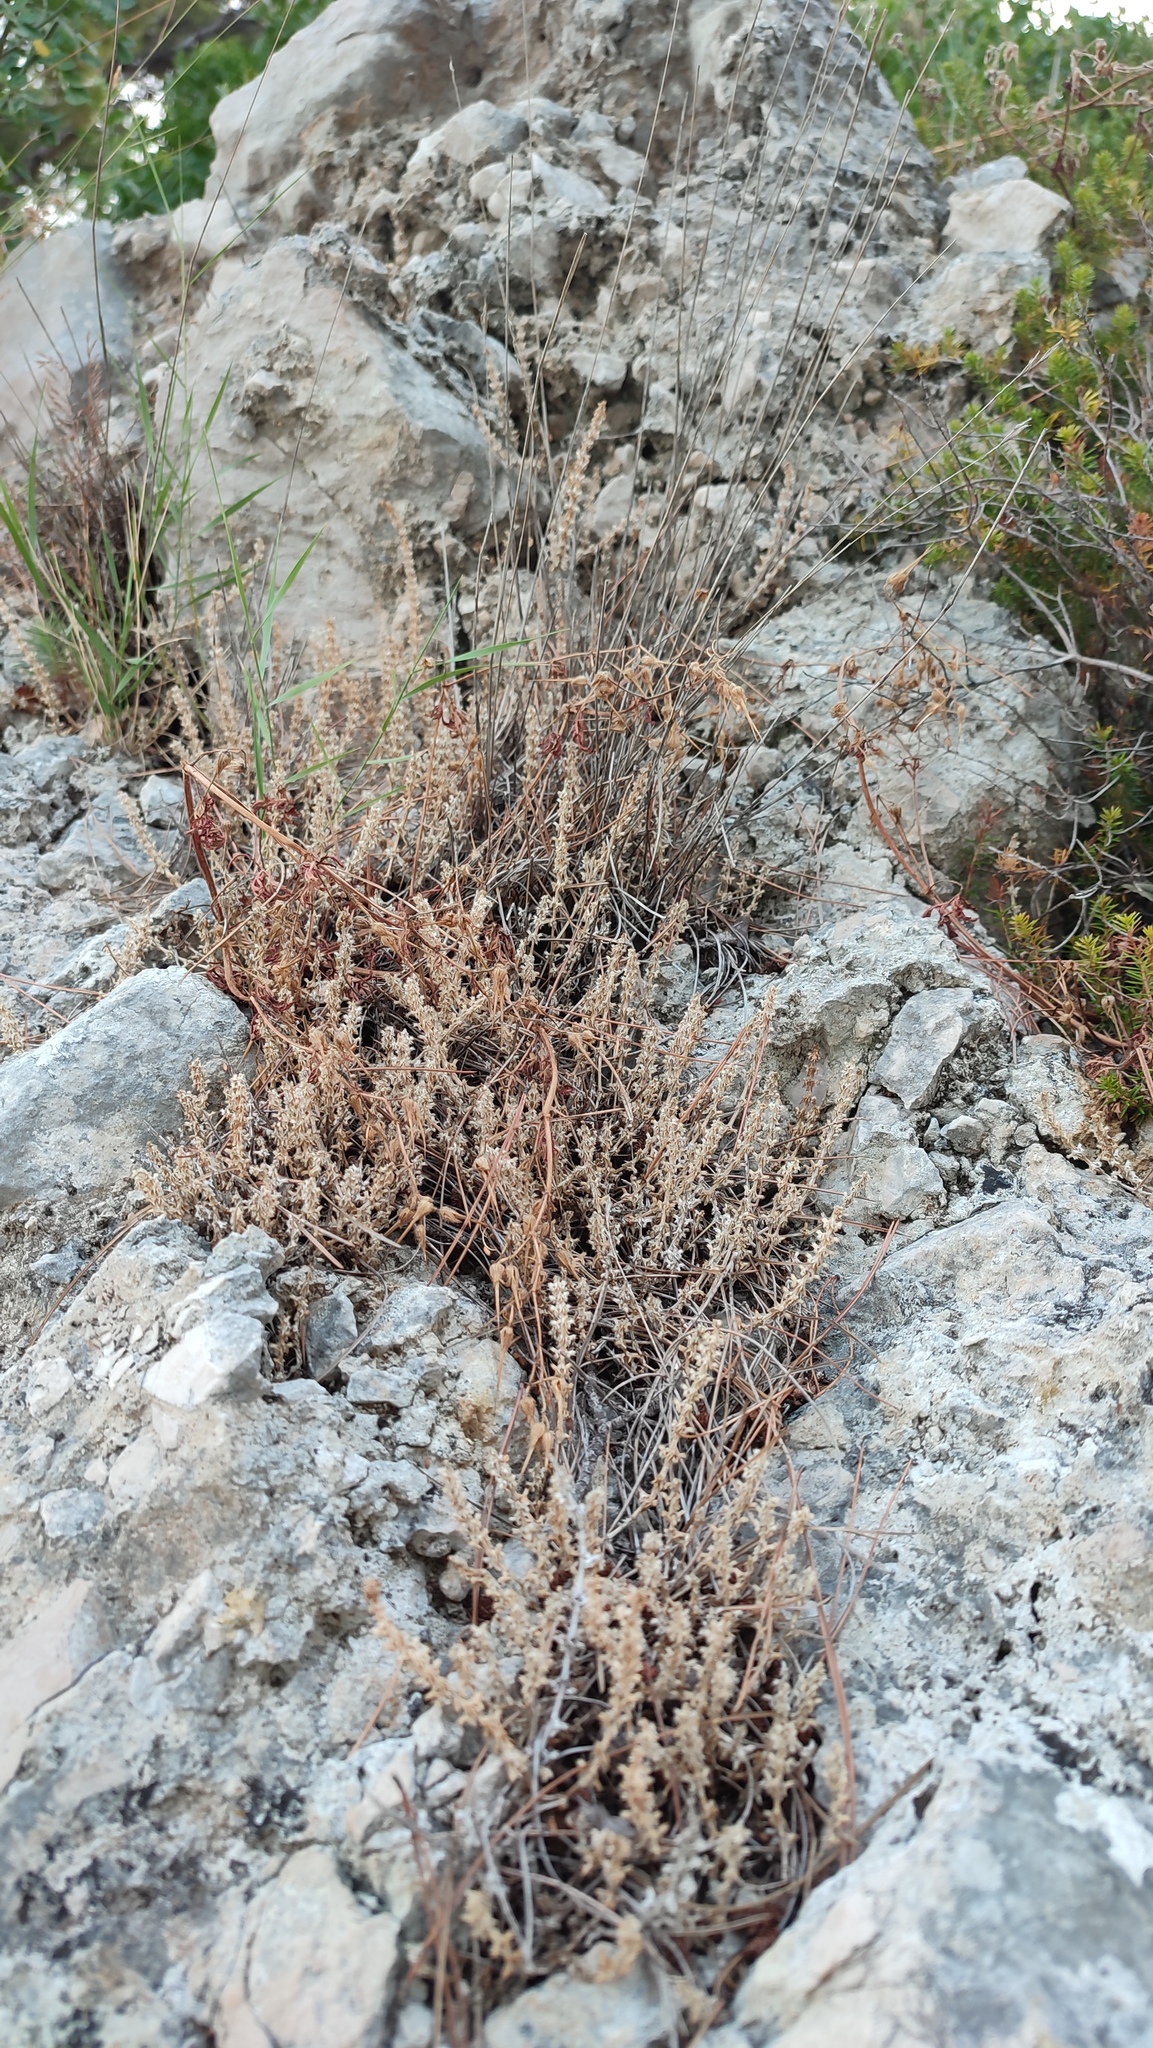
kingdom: Plantae
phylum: Tracheophyta
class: Magnoliopsida
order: Gentianales
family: Rubiaceae
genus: Valantia
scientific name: Valantia muralis
